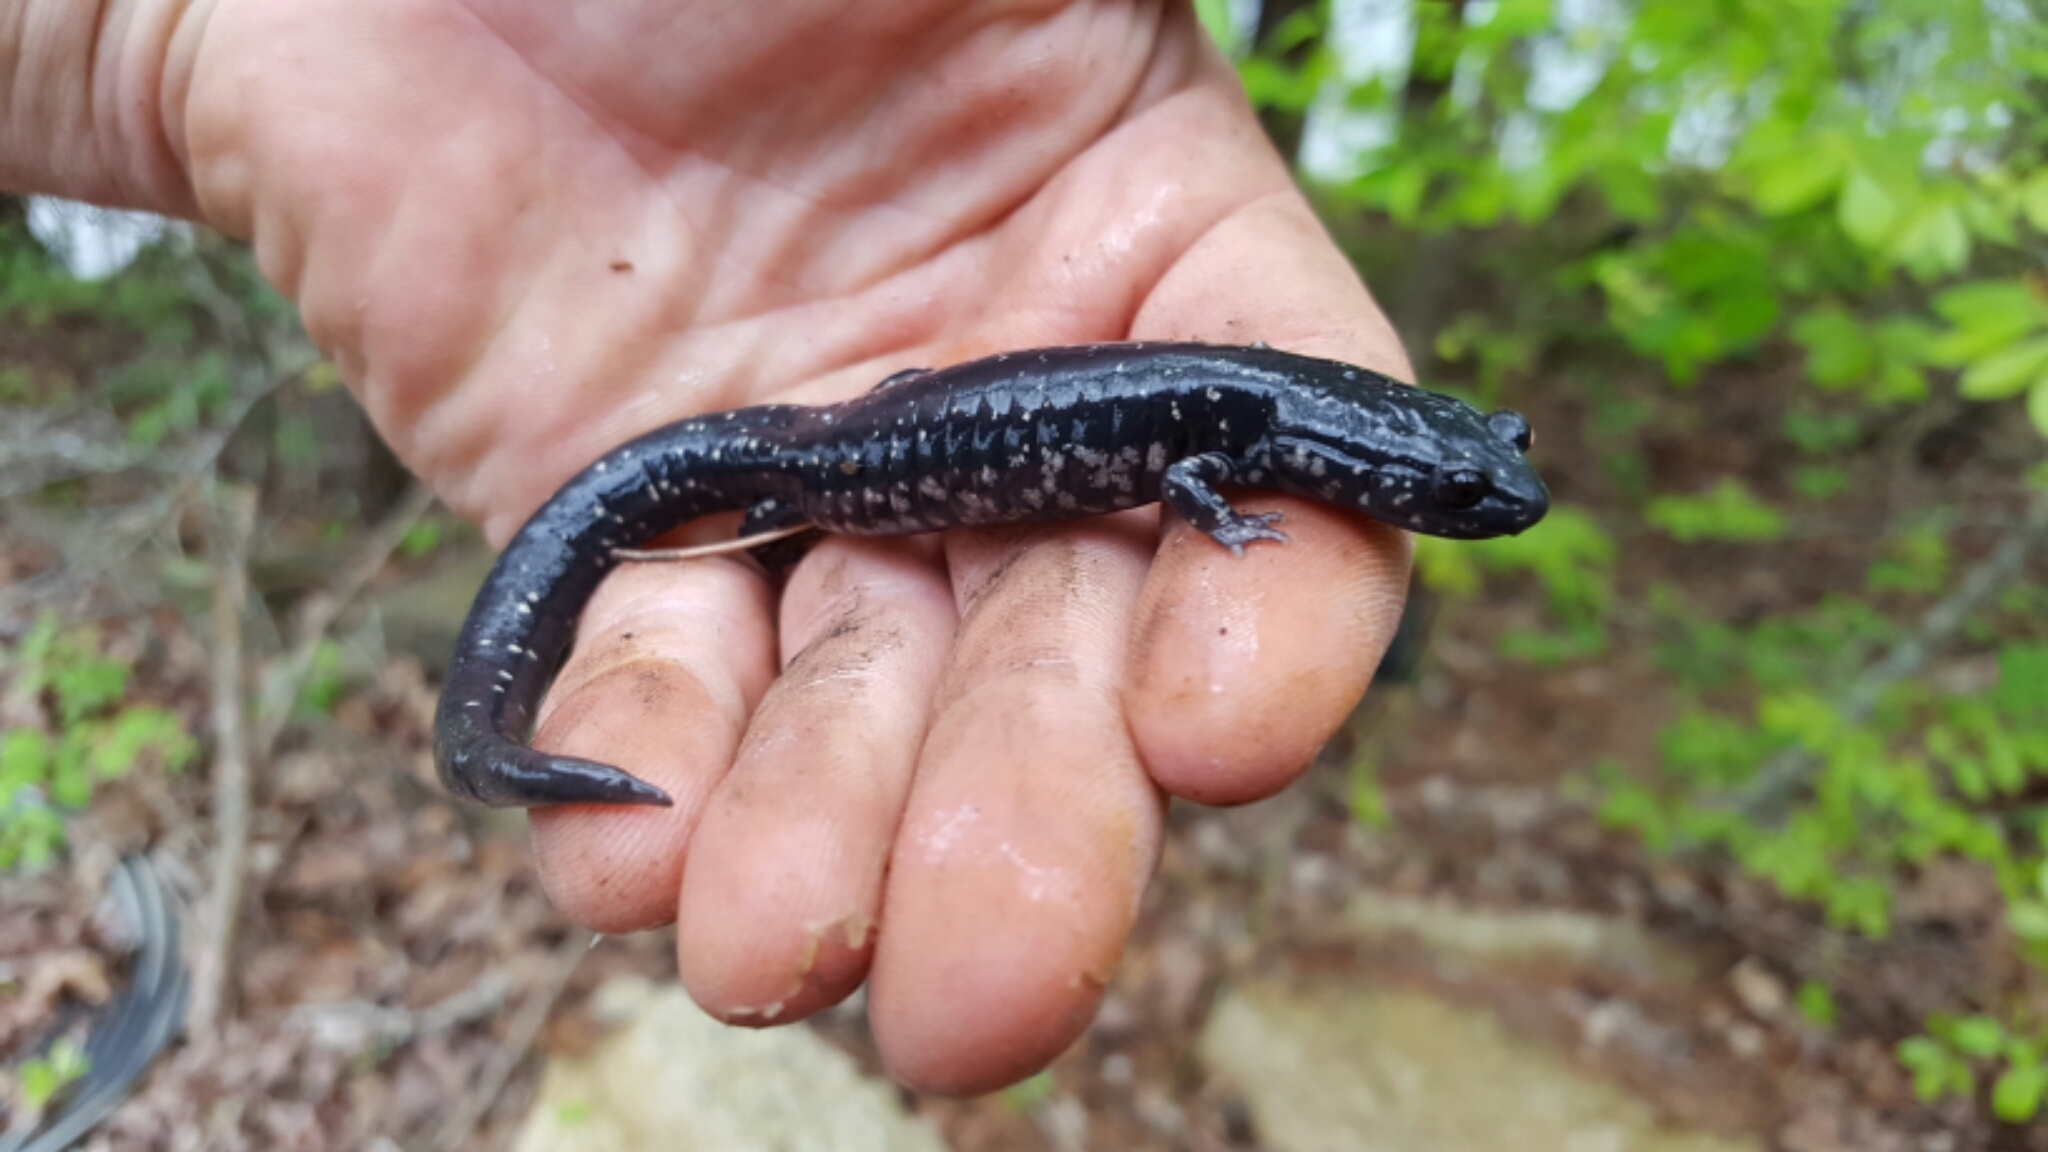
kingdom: Animalia
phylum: Chordata
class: Amphibia
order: Caudata
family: Plethodontidae
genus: Plethodon
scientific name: Plethodon albagula
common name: Western slimy salamander
